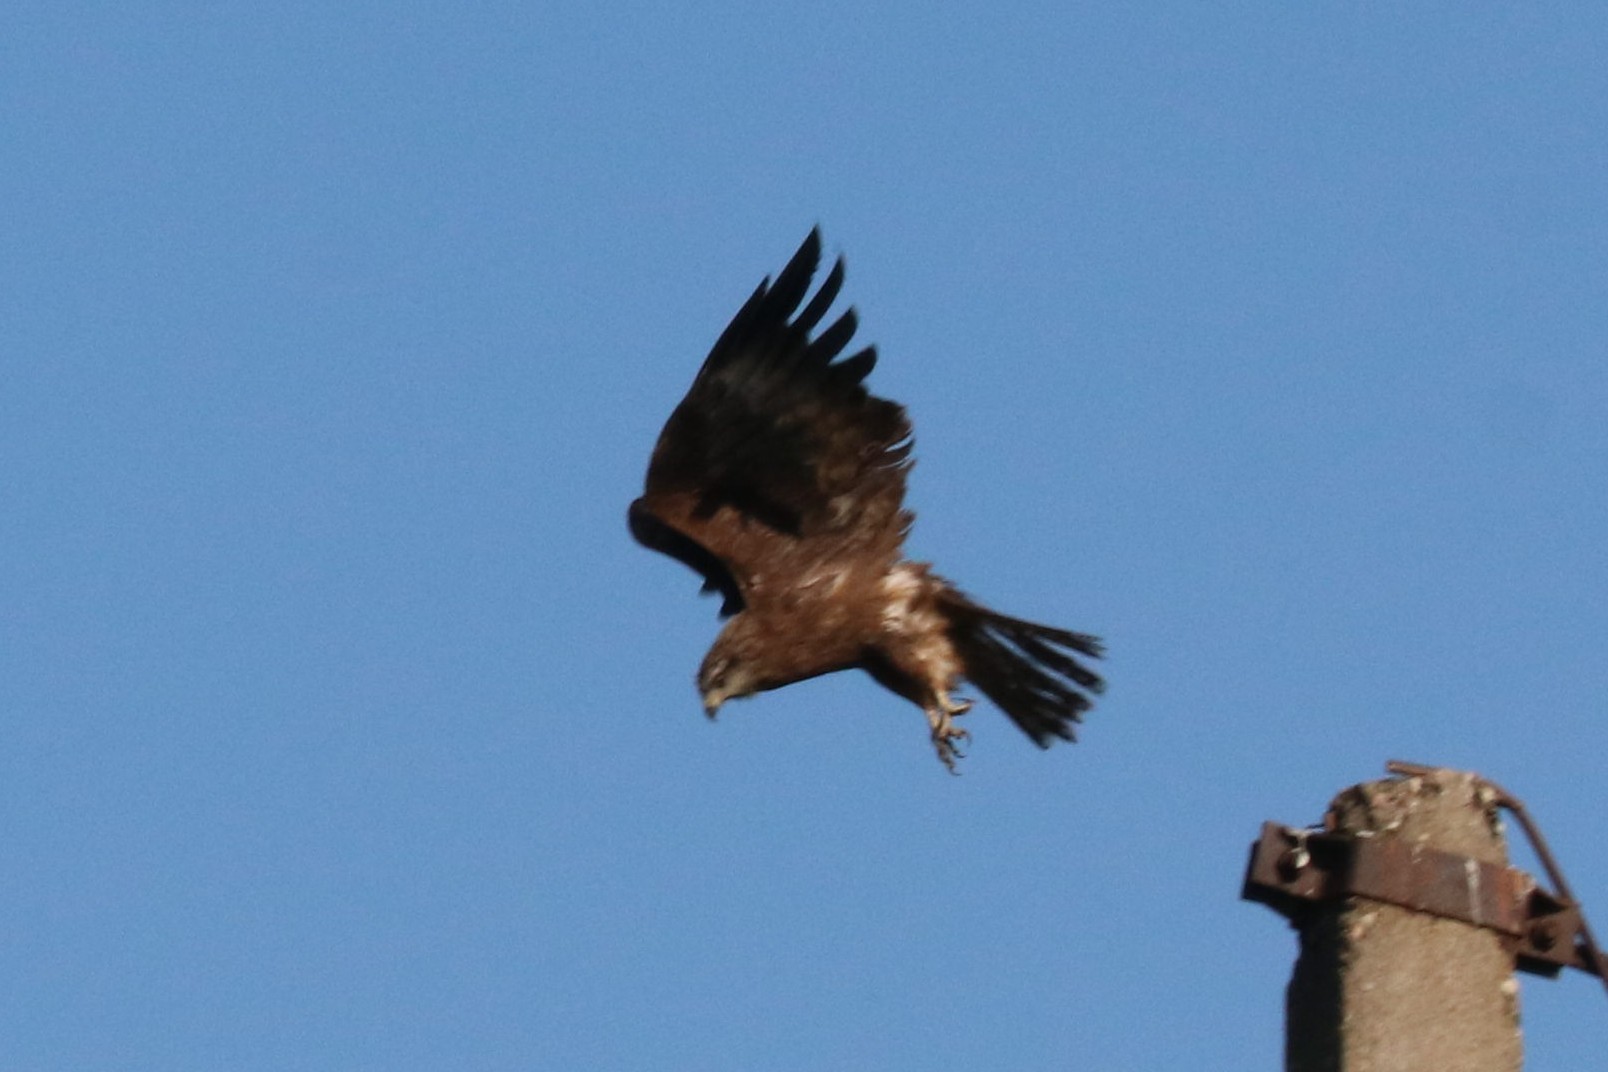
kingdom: Animalia
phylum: Chordata
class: Aves
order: Accipitriformes
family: Accipitridae
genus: Milvus
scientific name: Milvus migrans
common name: Black kite
